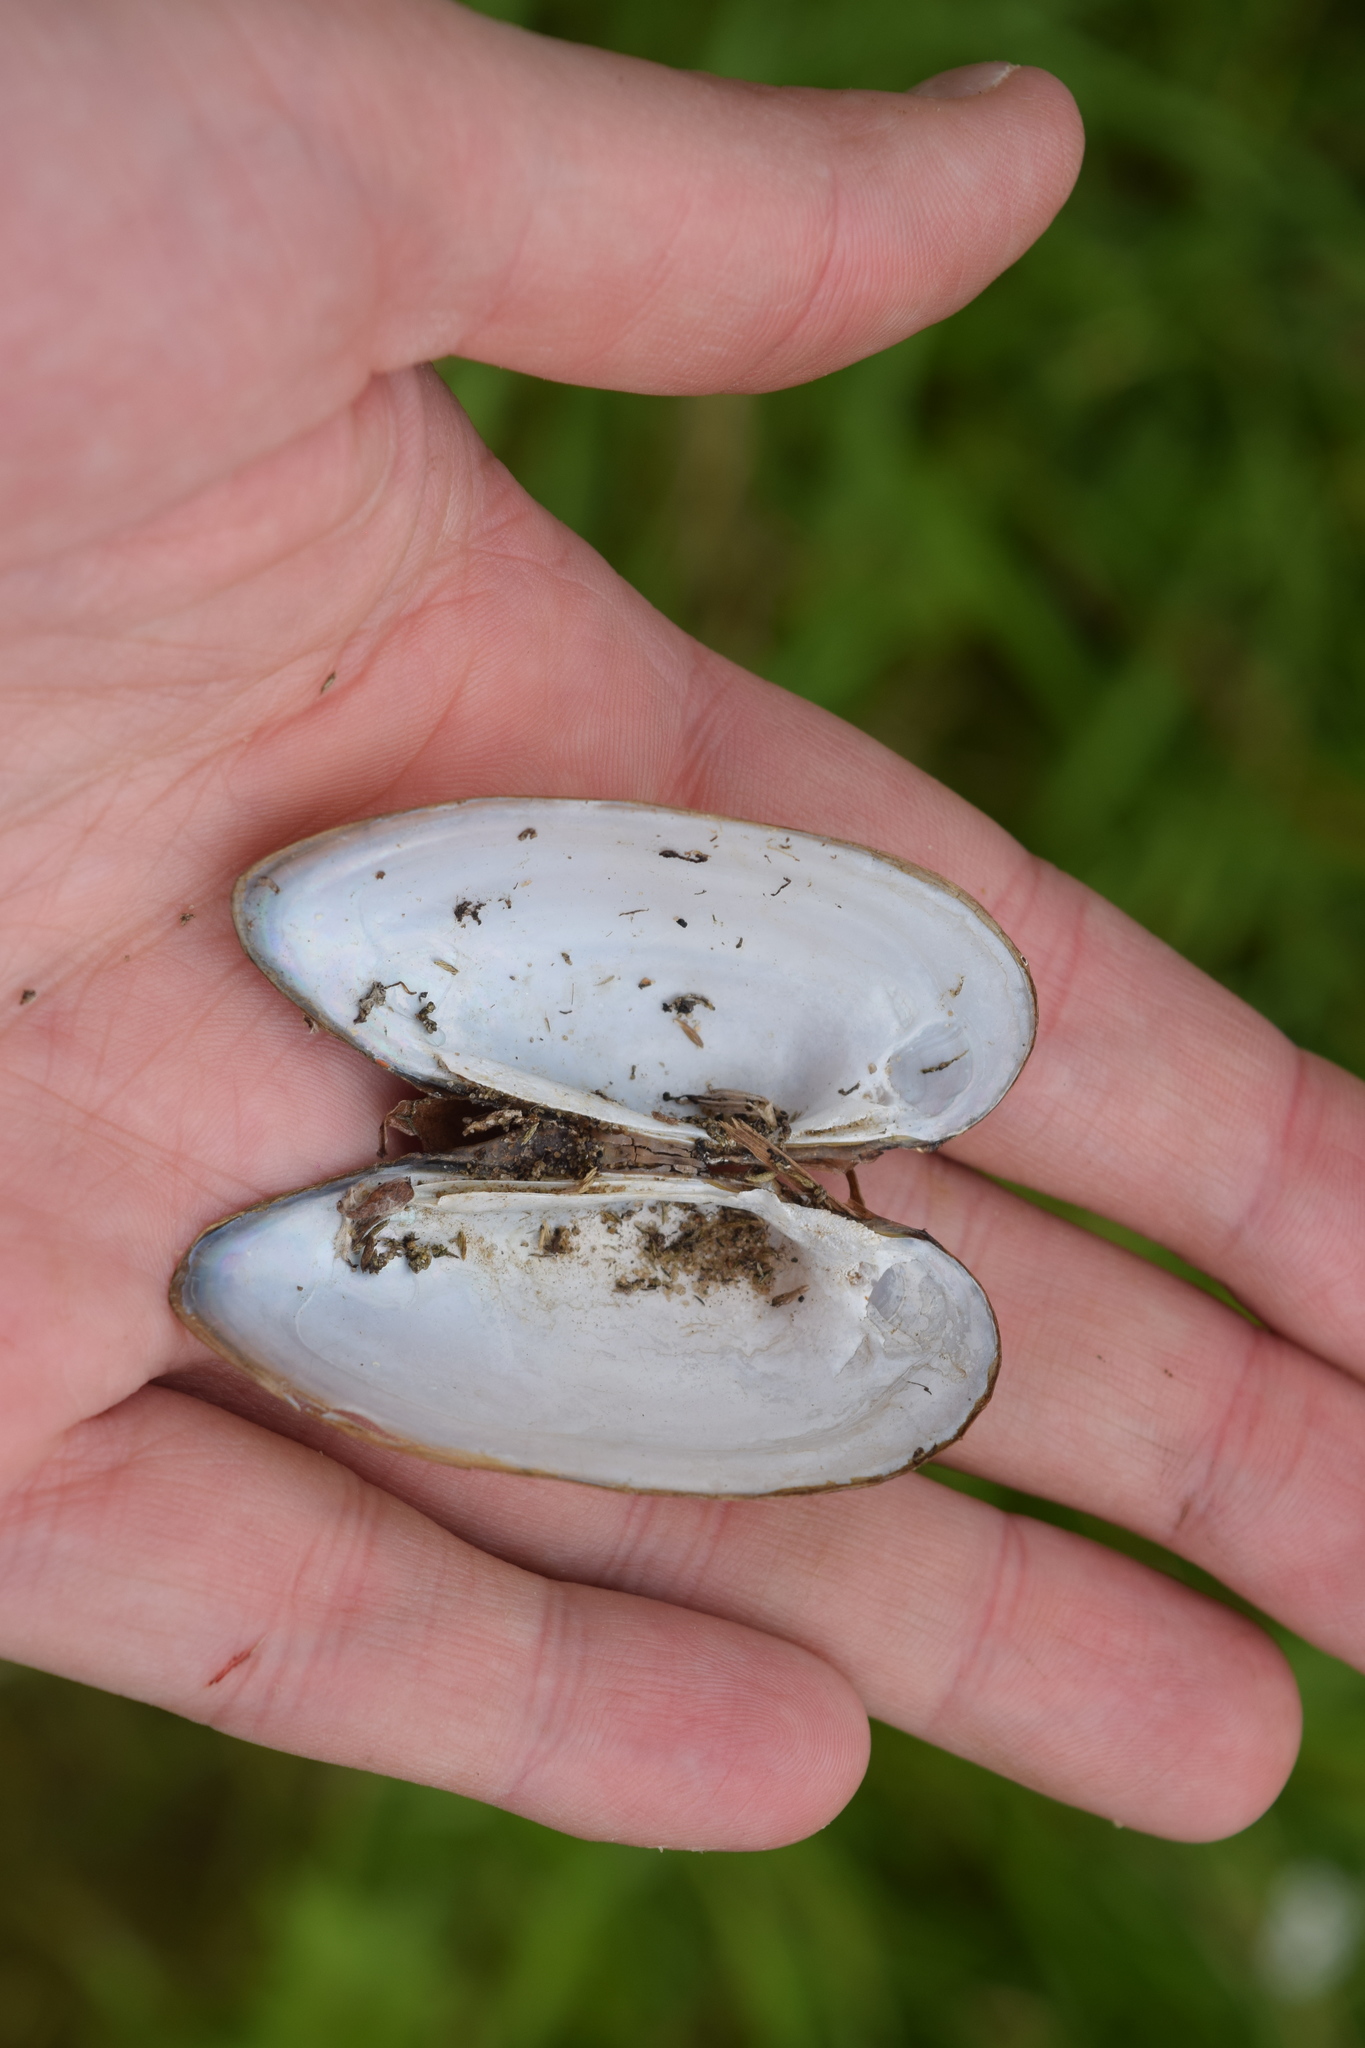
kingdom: Animalia
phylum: Mollusca
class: Bivalvia
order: Unionida
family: Unionidae
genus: Unio
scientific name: Unio pictorum
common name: Painter's mussel
